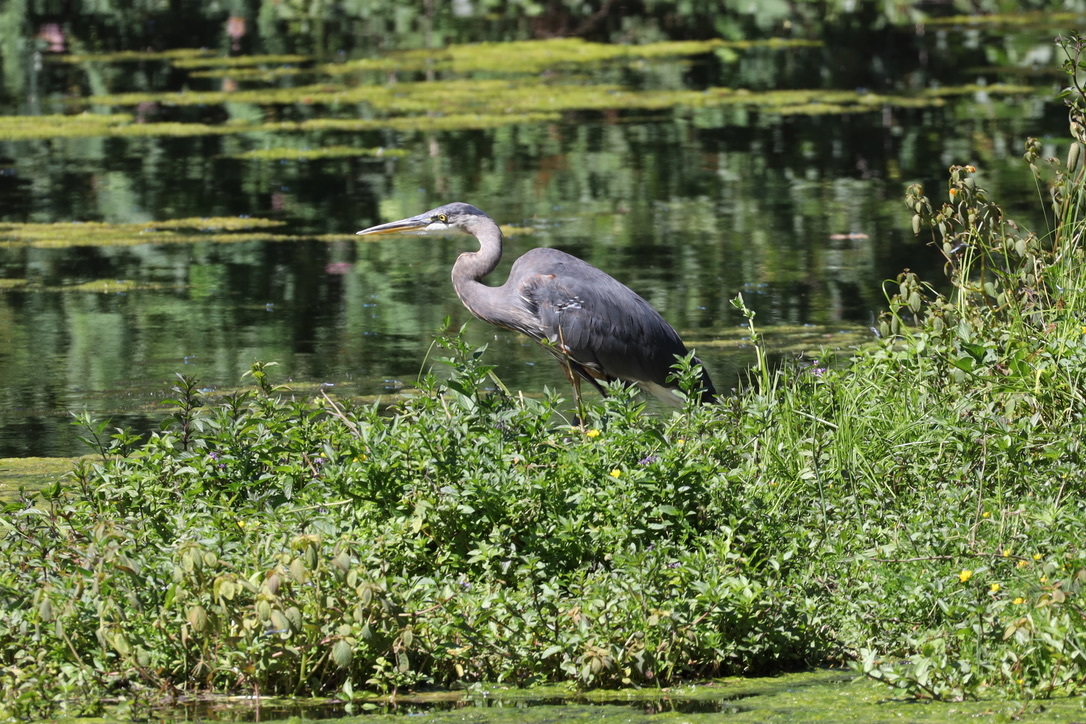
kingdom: Animalia
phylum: Chordata
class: Aves
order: Pelecaniformes
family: Ardeidae
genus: Ardea
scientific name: Ardea herodias
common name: Great blue heron
